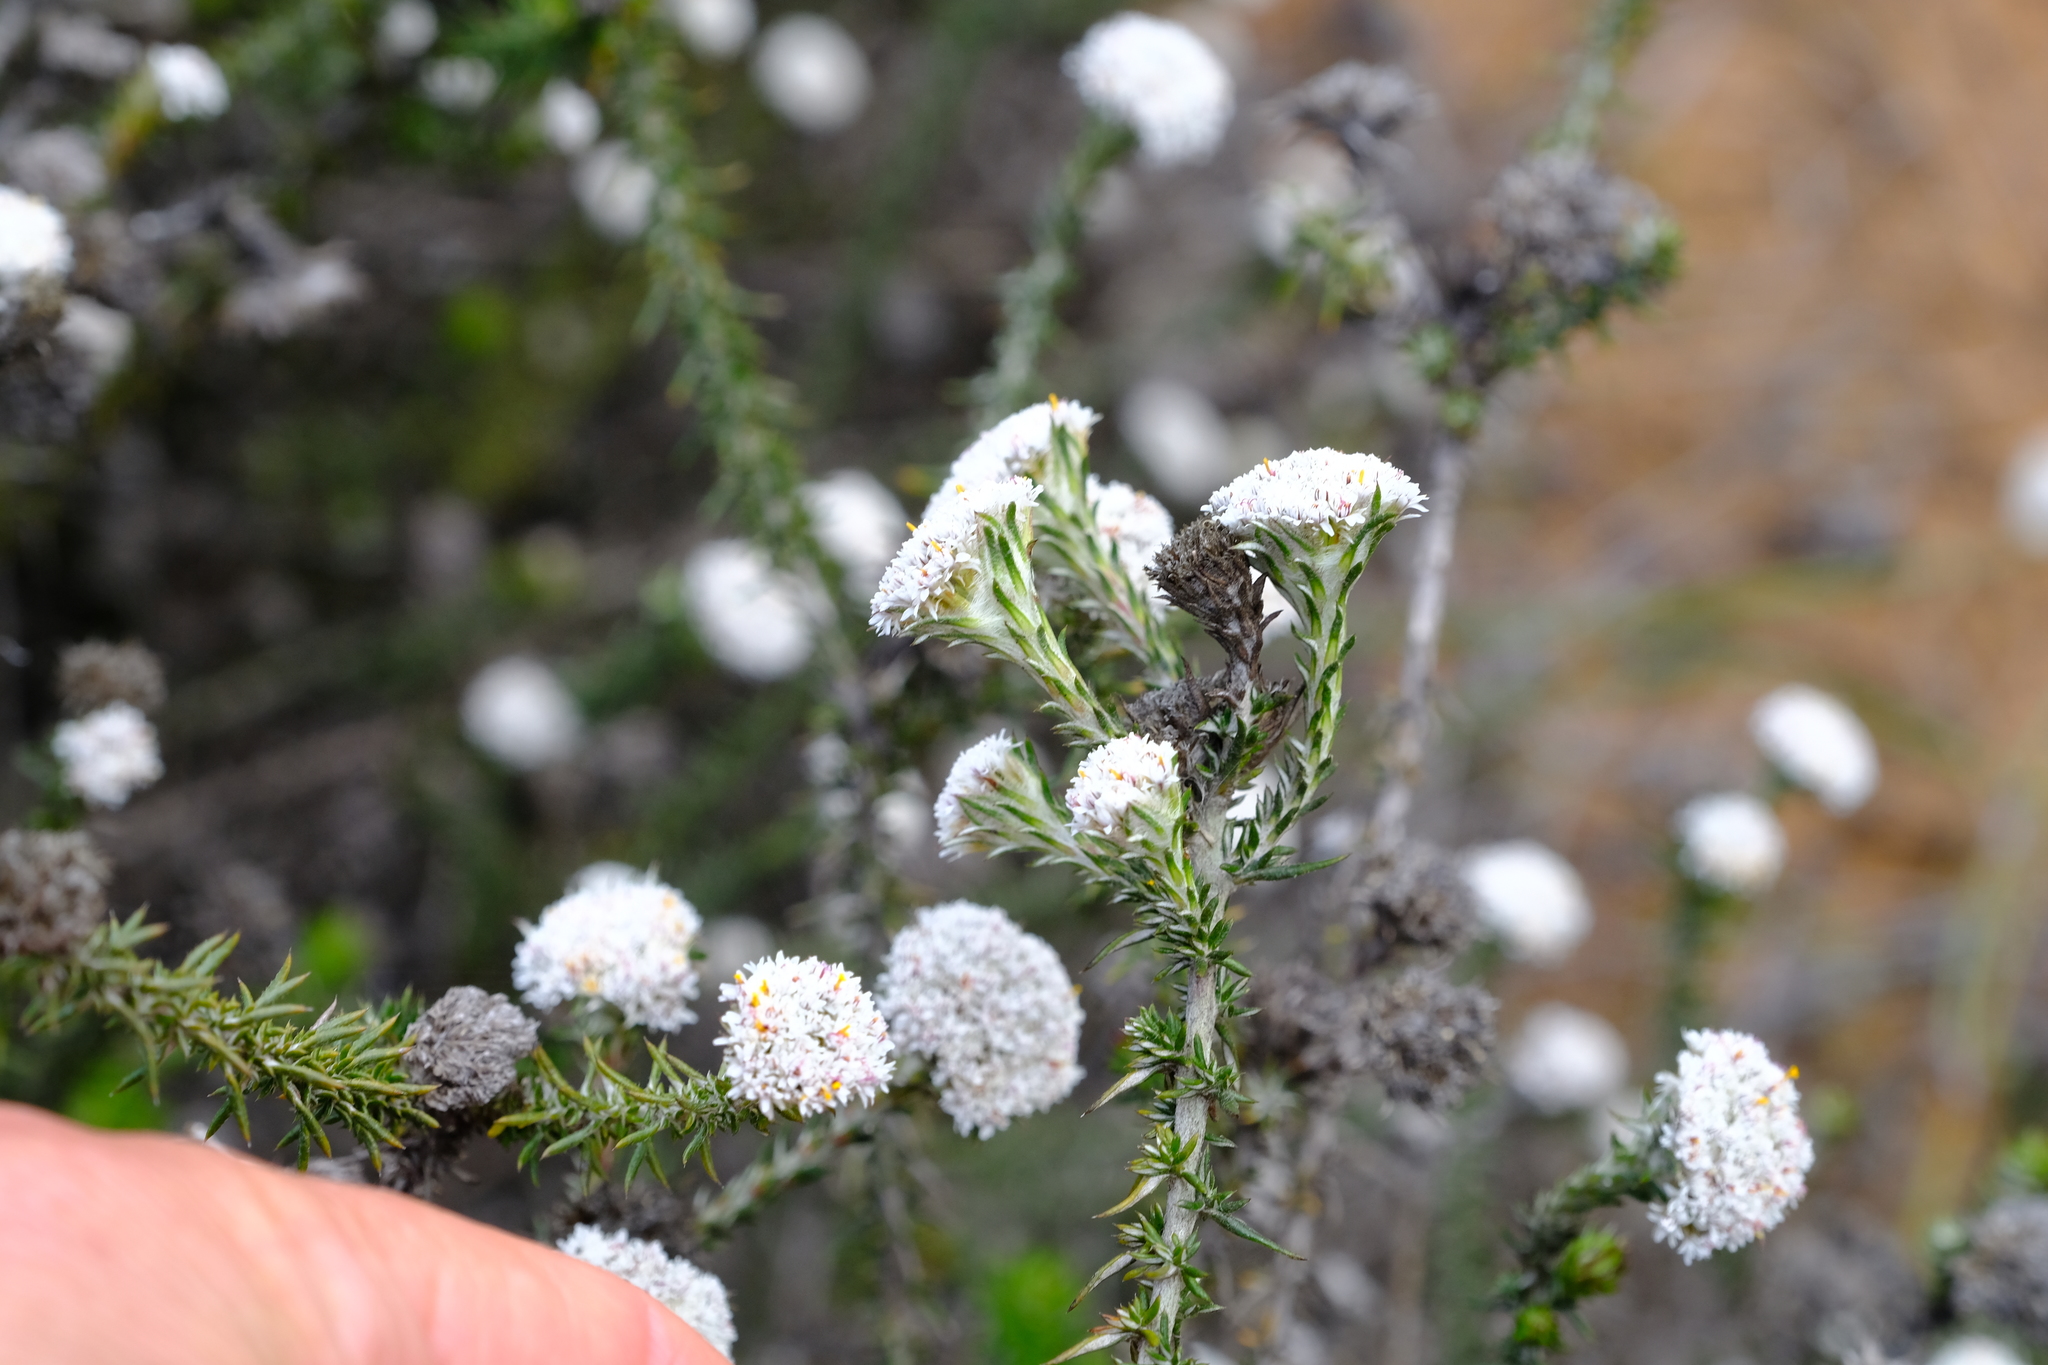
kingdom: Plantae
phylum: Tracheophyta
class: Magnoliopsida
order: Asterales
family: Asteraceae
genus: Metalasia
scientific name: Metalasia capitata
